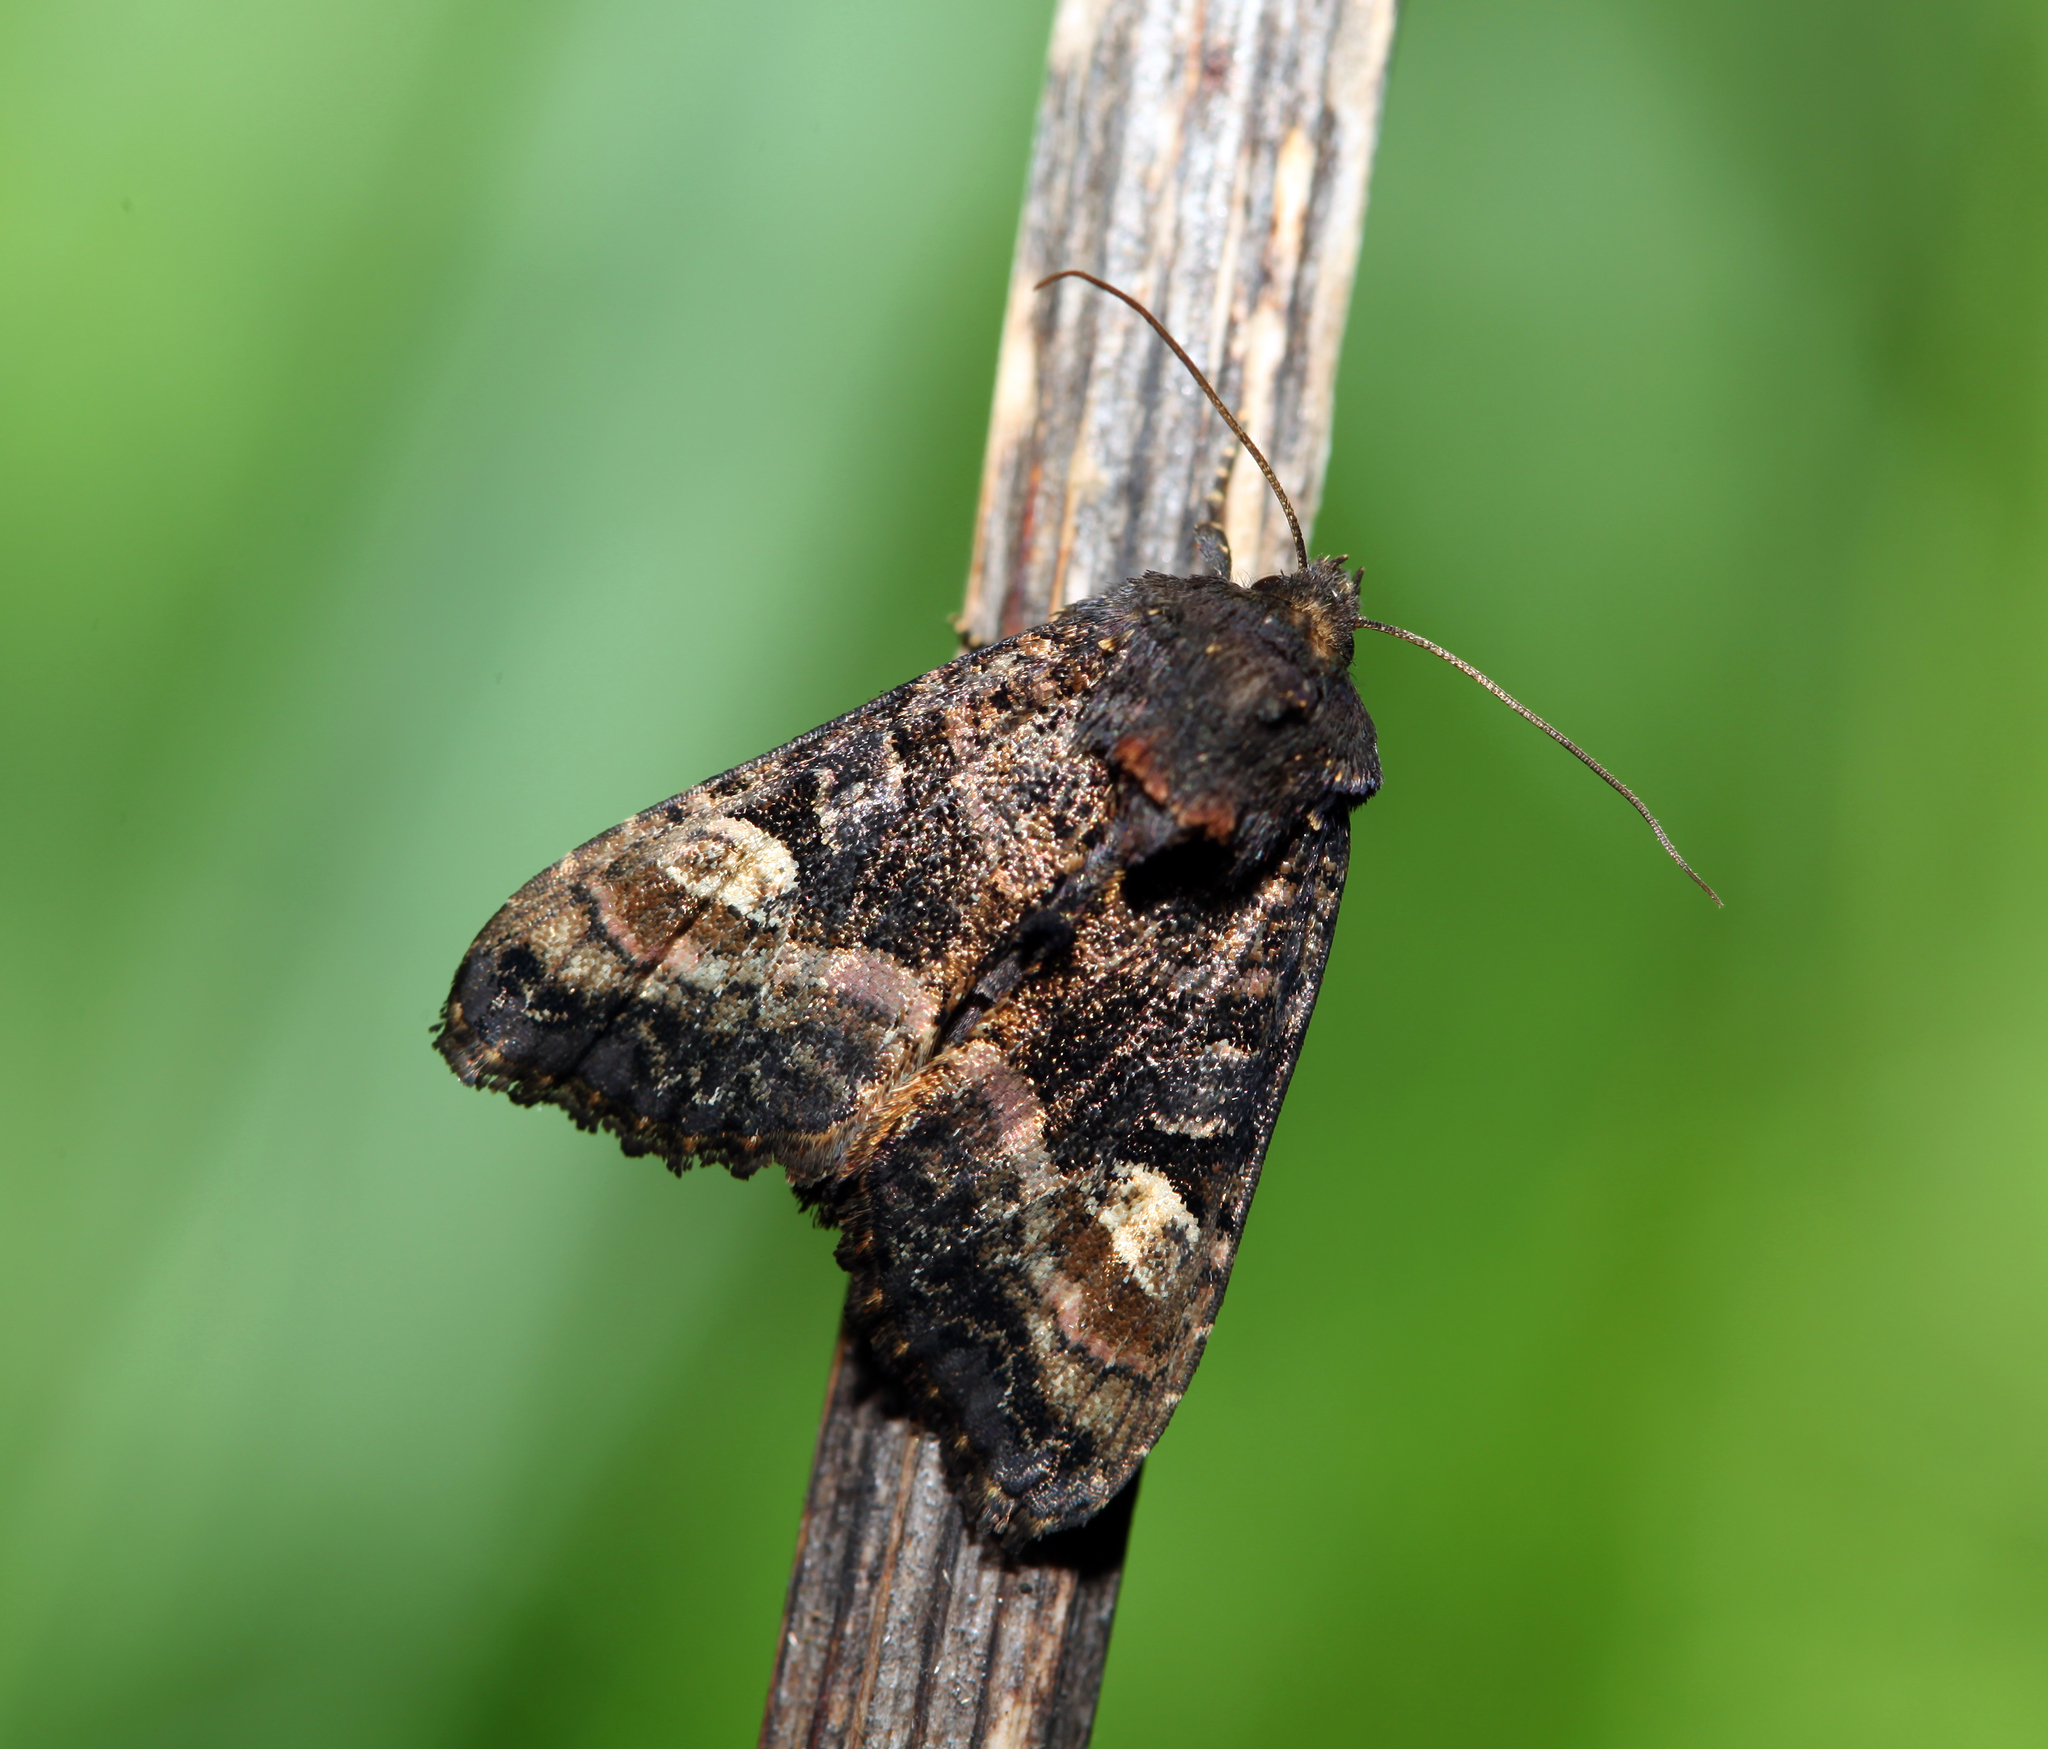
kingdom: Animalia
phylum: Arthropoda
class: Insecta
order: Lepidoptera
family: Noctuidae
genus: Euplexia
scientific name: Euplexia lucipara
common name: Small angle shades
